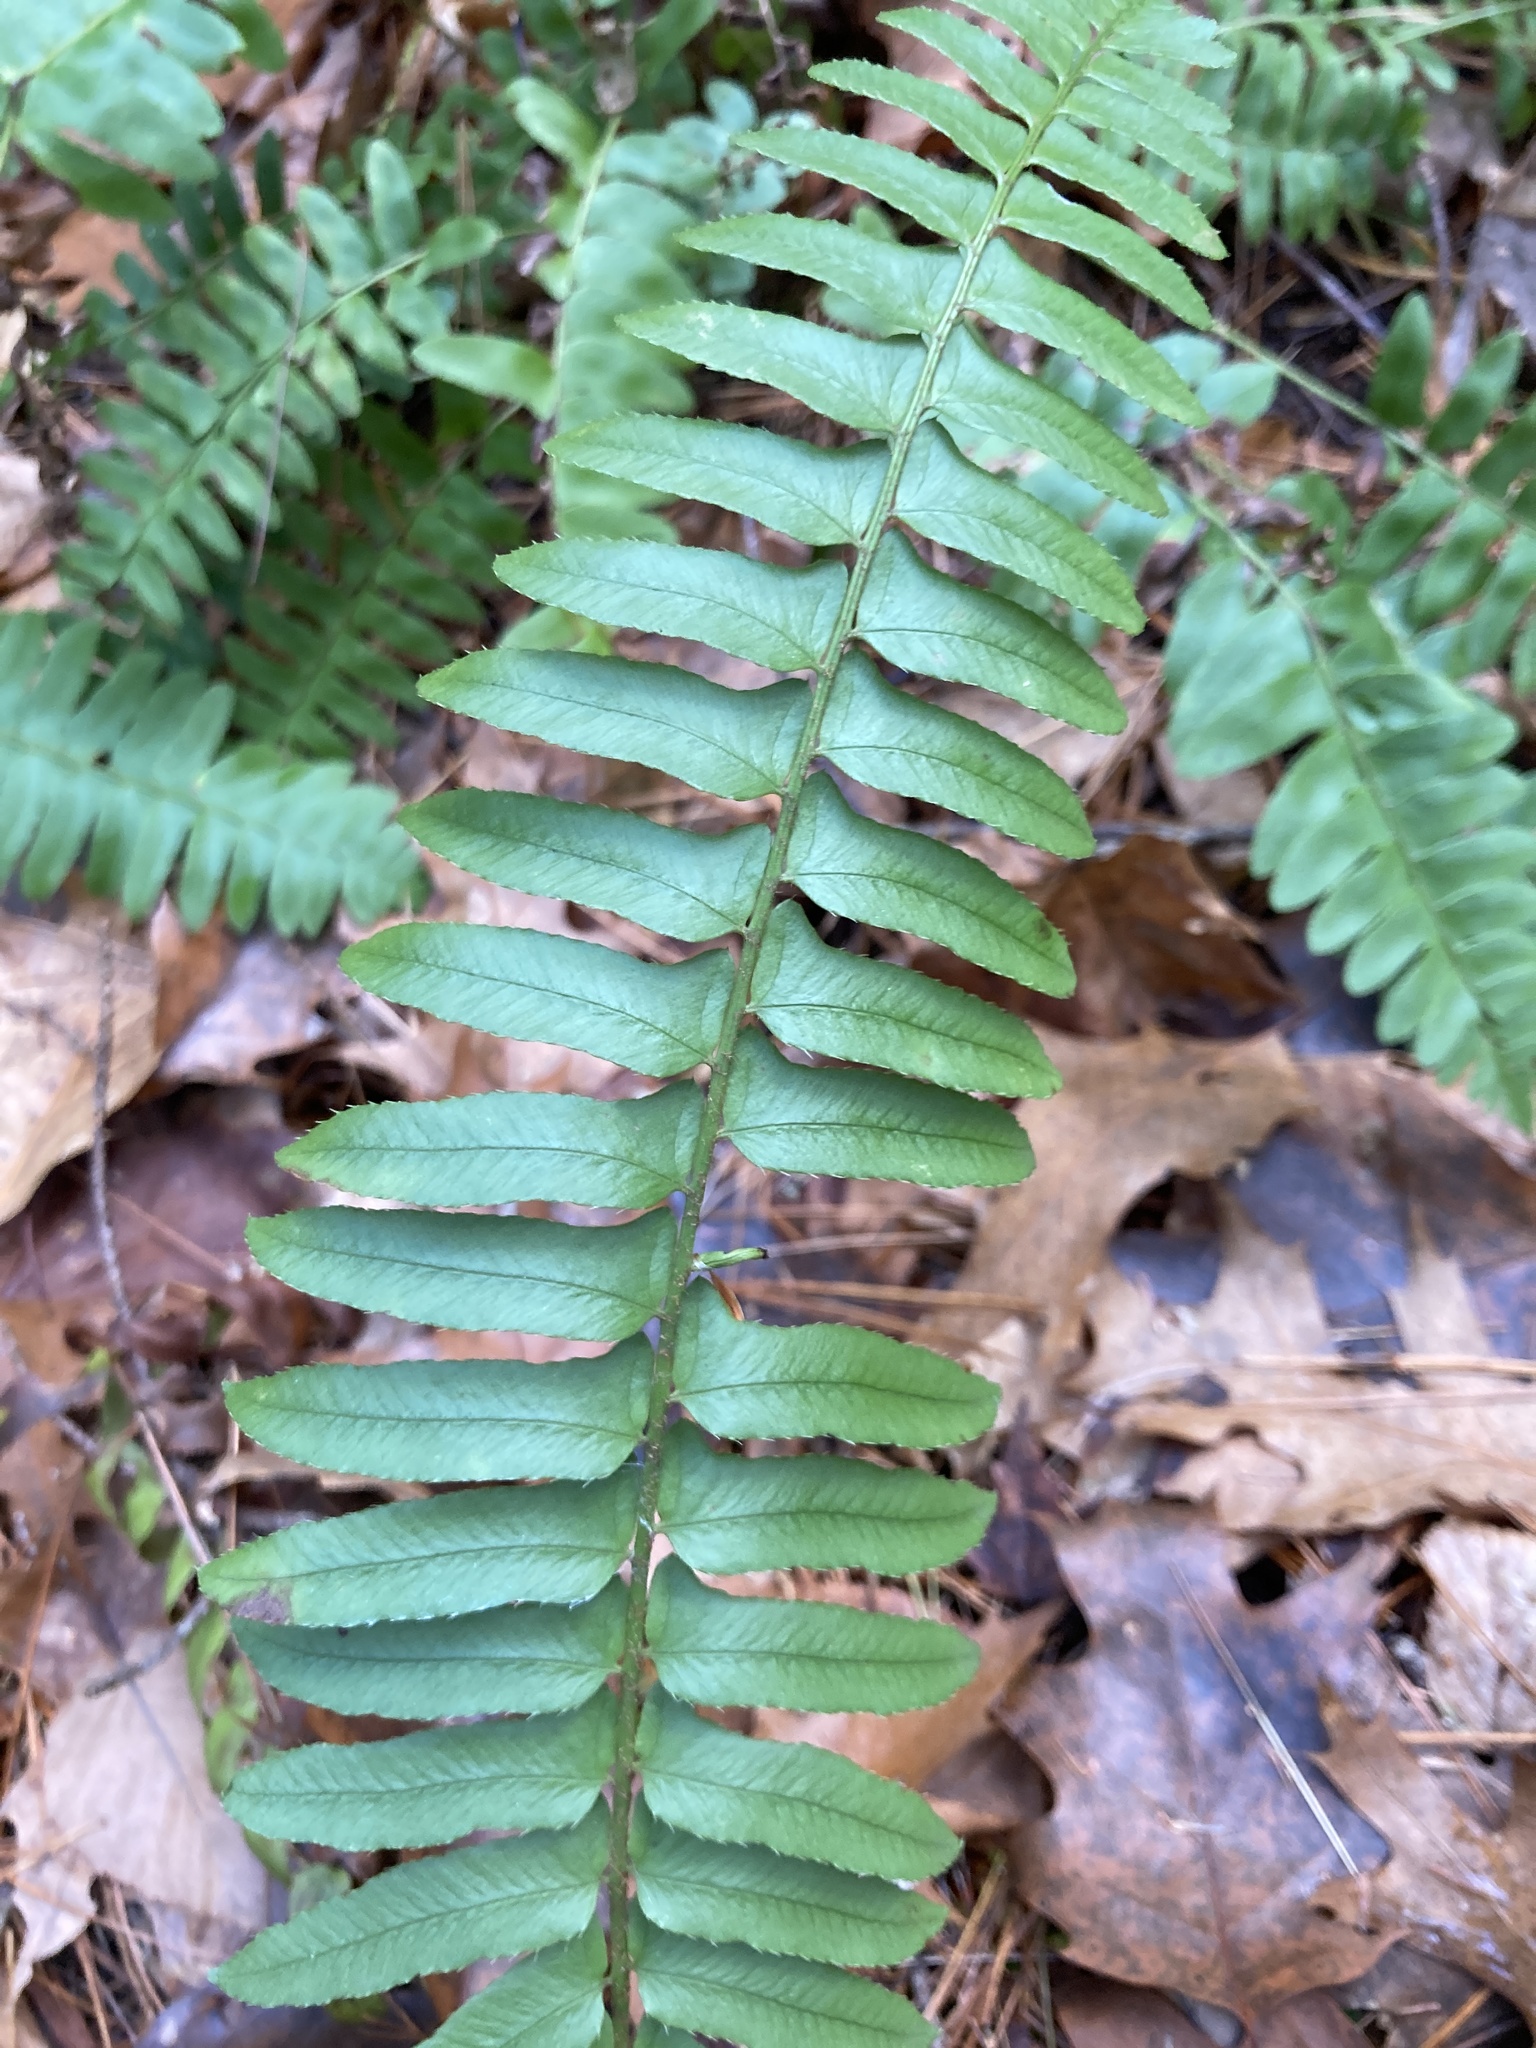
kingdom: Plantae
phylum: Tracheophyta
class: Polypodiopsida
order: Polypodiales
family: Dryopteridaceae
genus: Polystichum
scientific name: Polystichum acrostichoides
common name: Christmas fern
